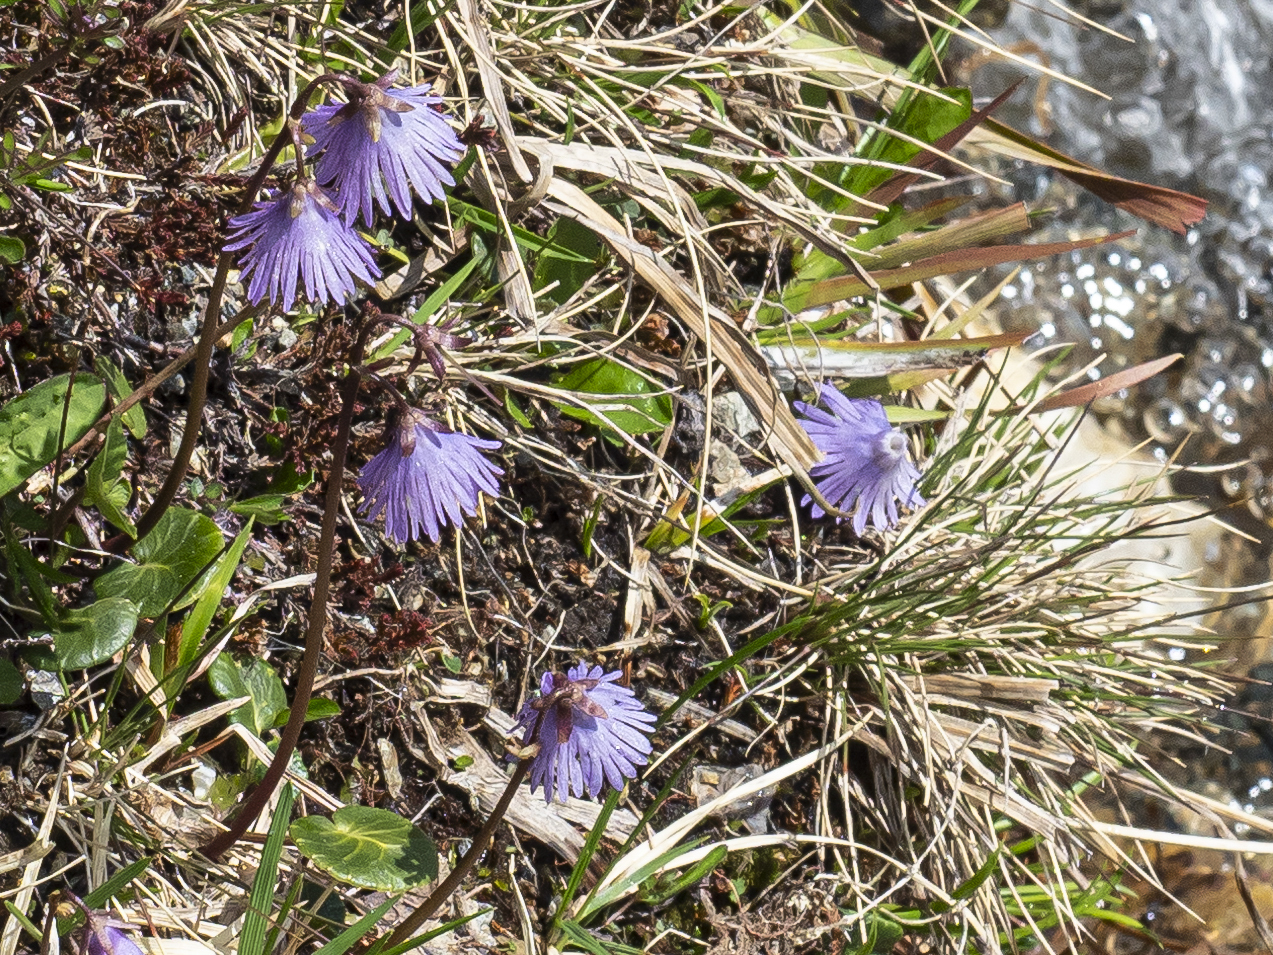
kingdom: Plantae
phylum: Tracheophyta
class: Magnoliopsida
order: Ericales
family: Primulaceae
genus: Soldanella
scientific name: Soldanella alpina
